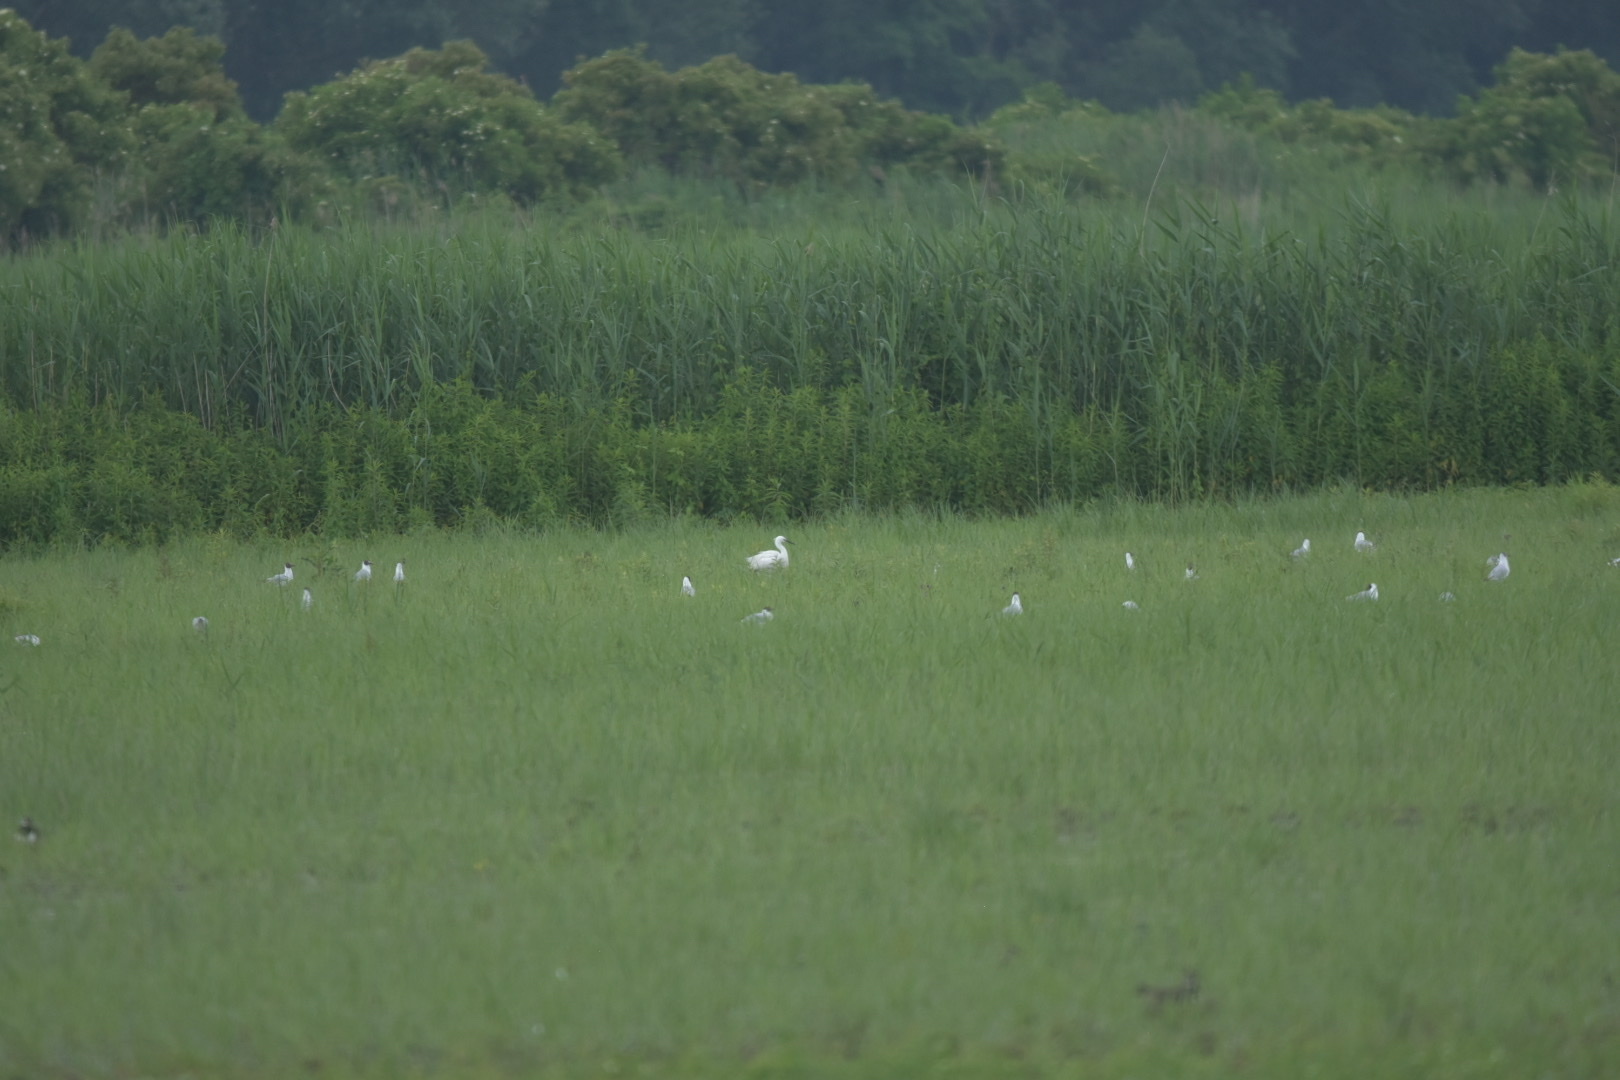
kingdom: Animalia
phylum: Chordata
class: Aves
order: Pelecaniformes
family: Ardeidae
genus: Egretta
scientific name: Egretta garzetta
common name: Little egret
